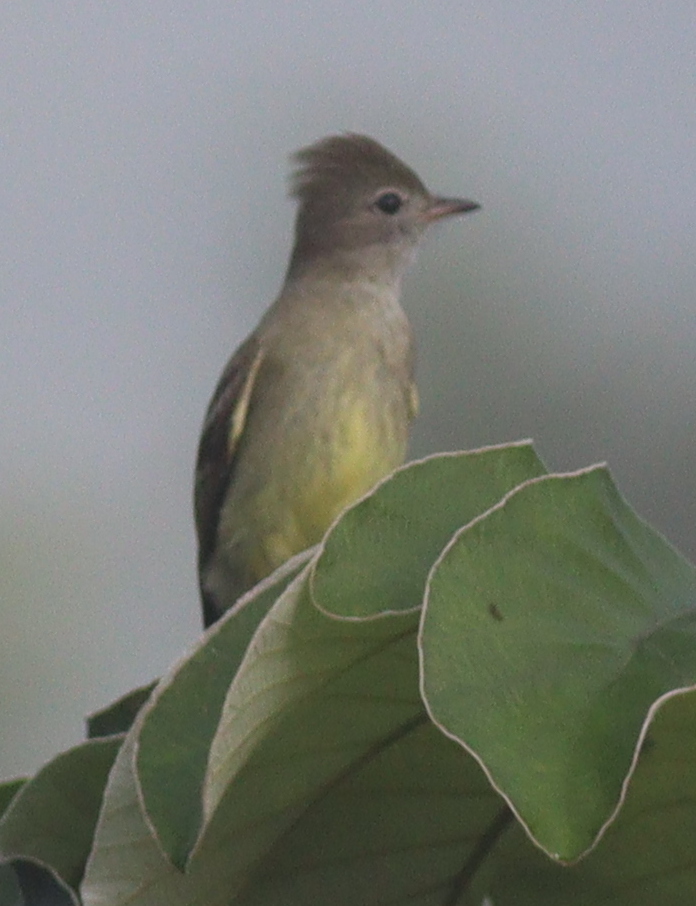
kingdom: Animalia
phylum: Chordata
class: Aves
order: Passeriformes
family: Tyrannidae
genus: Elaenia
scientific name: Elaenia flavogaster
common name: Yellow-bellied elaenia
